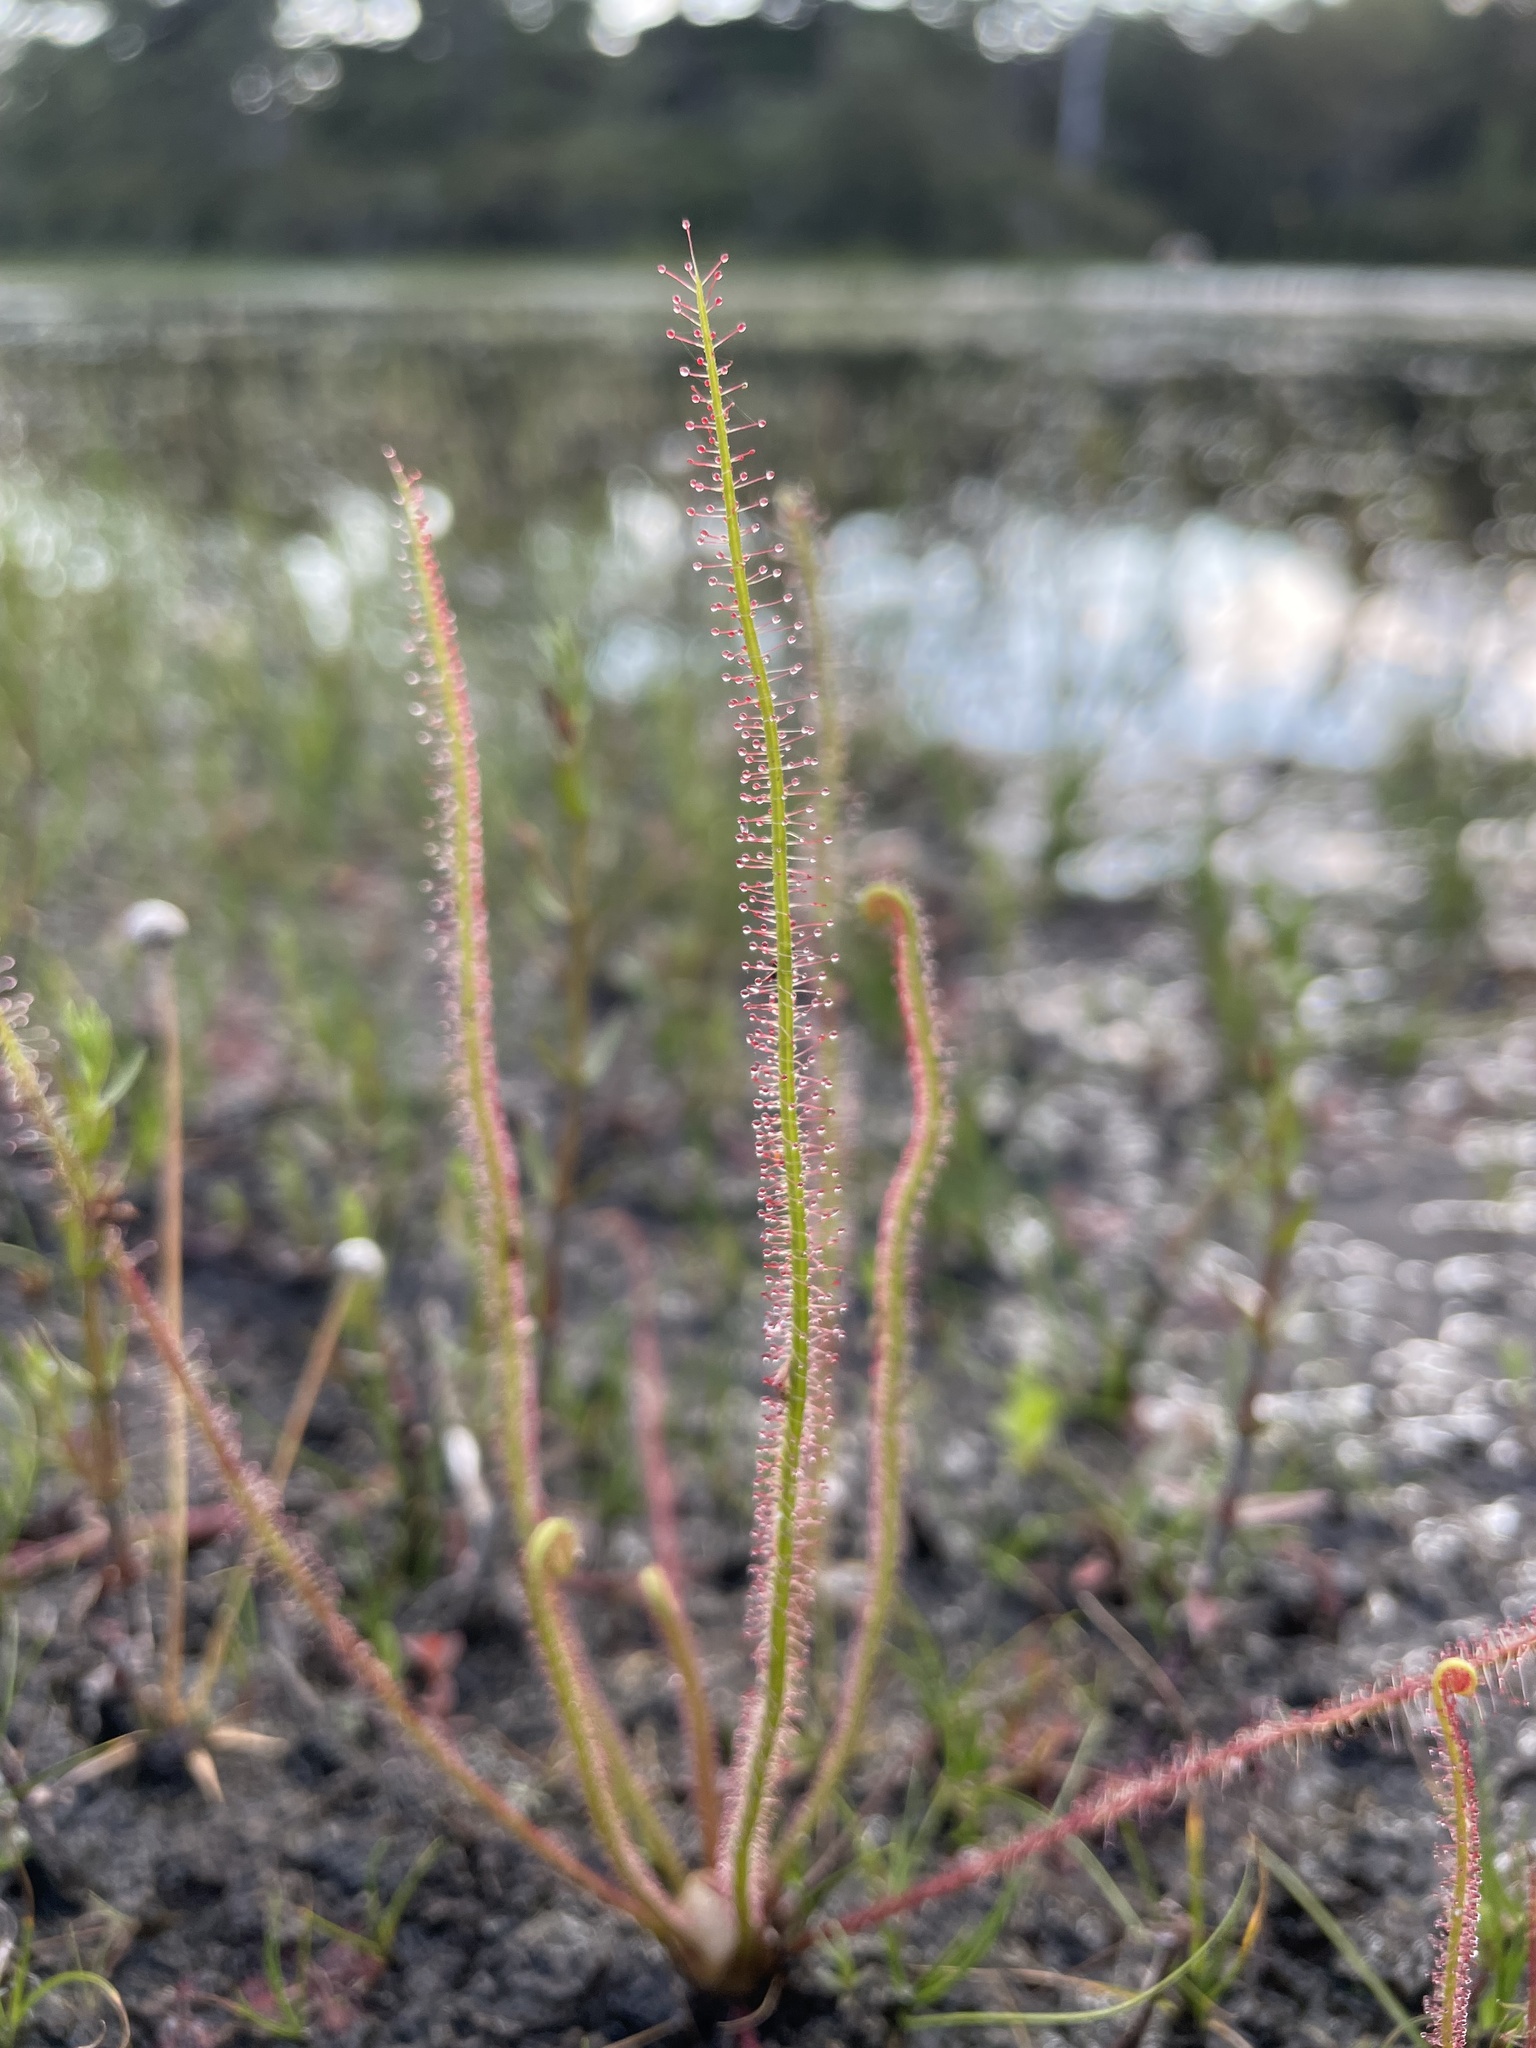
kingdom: Plantae
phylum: Tracheophyta
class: Magnoliopsida
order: Caryophyllales
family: Droseraceae
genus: Drosera
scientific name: Drosera filiformis
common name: Dew-thread
